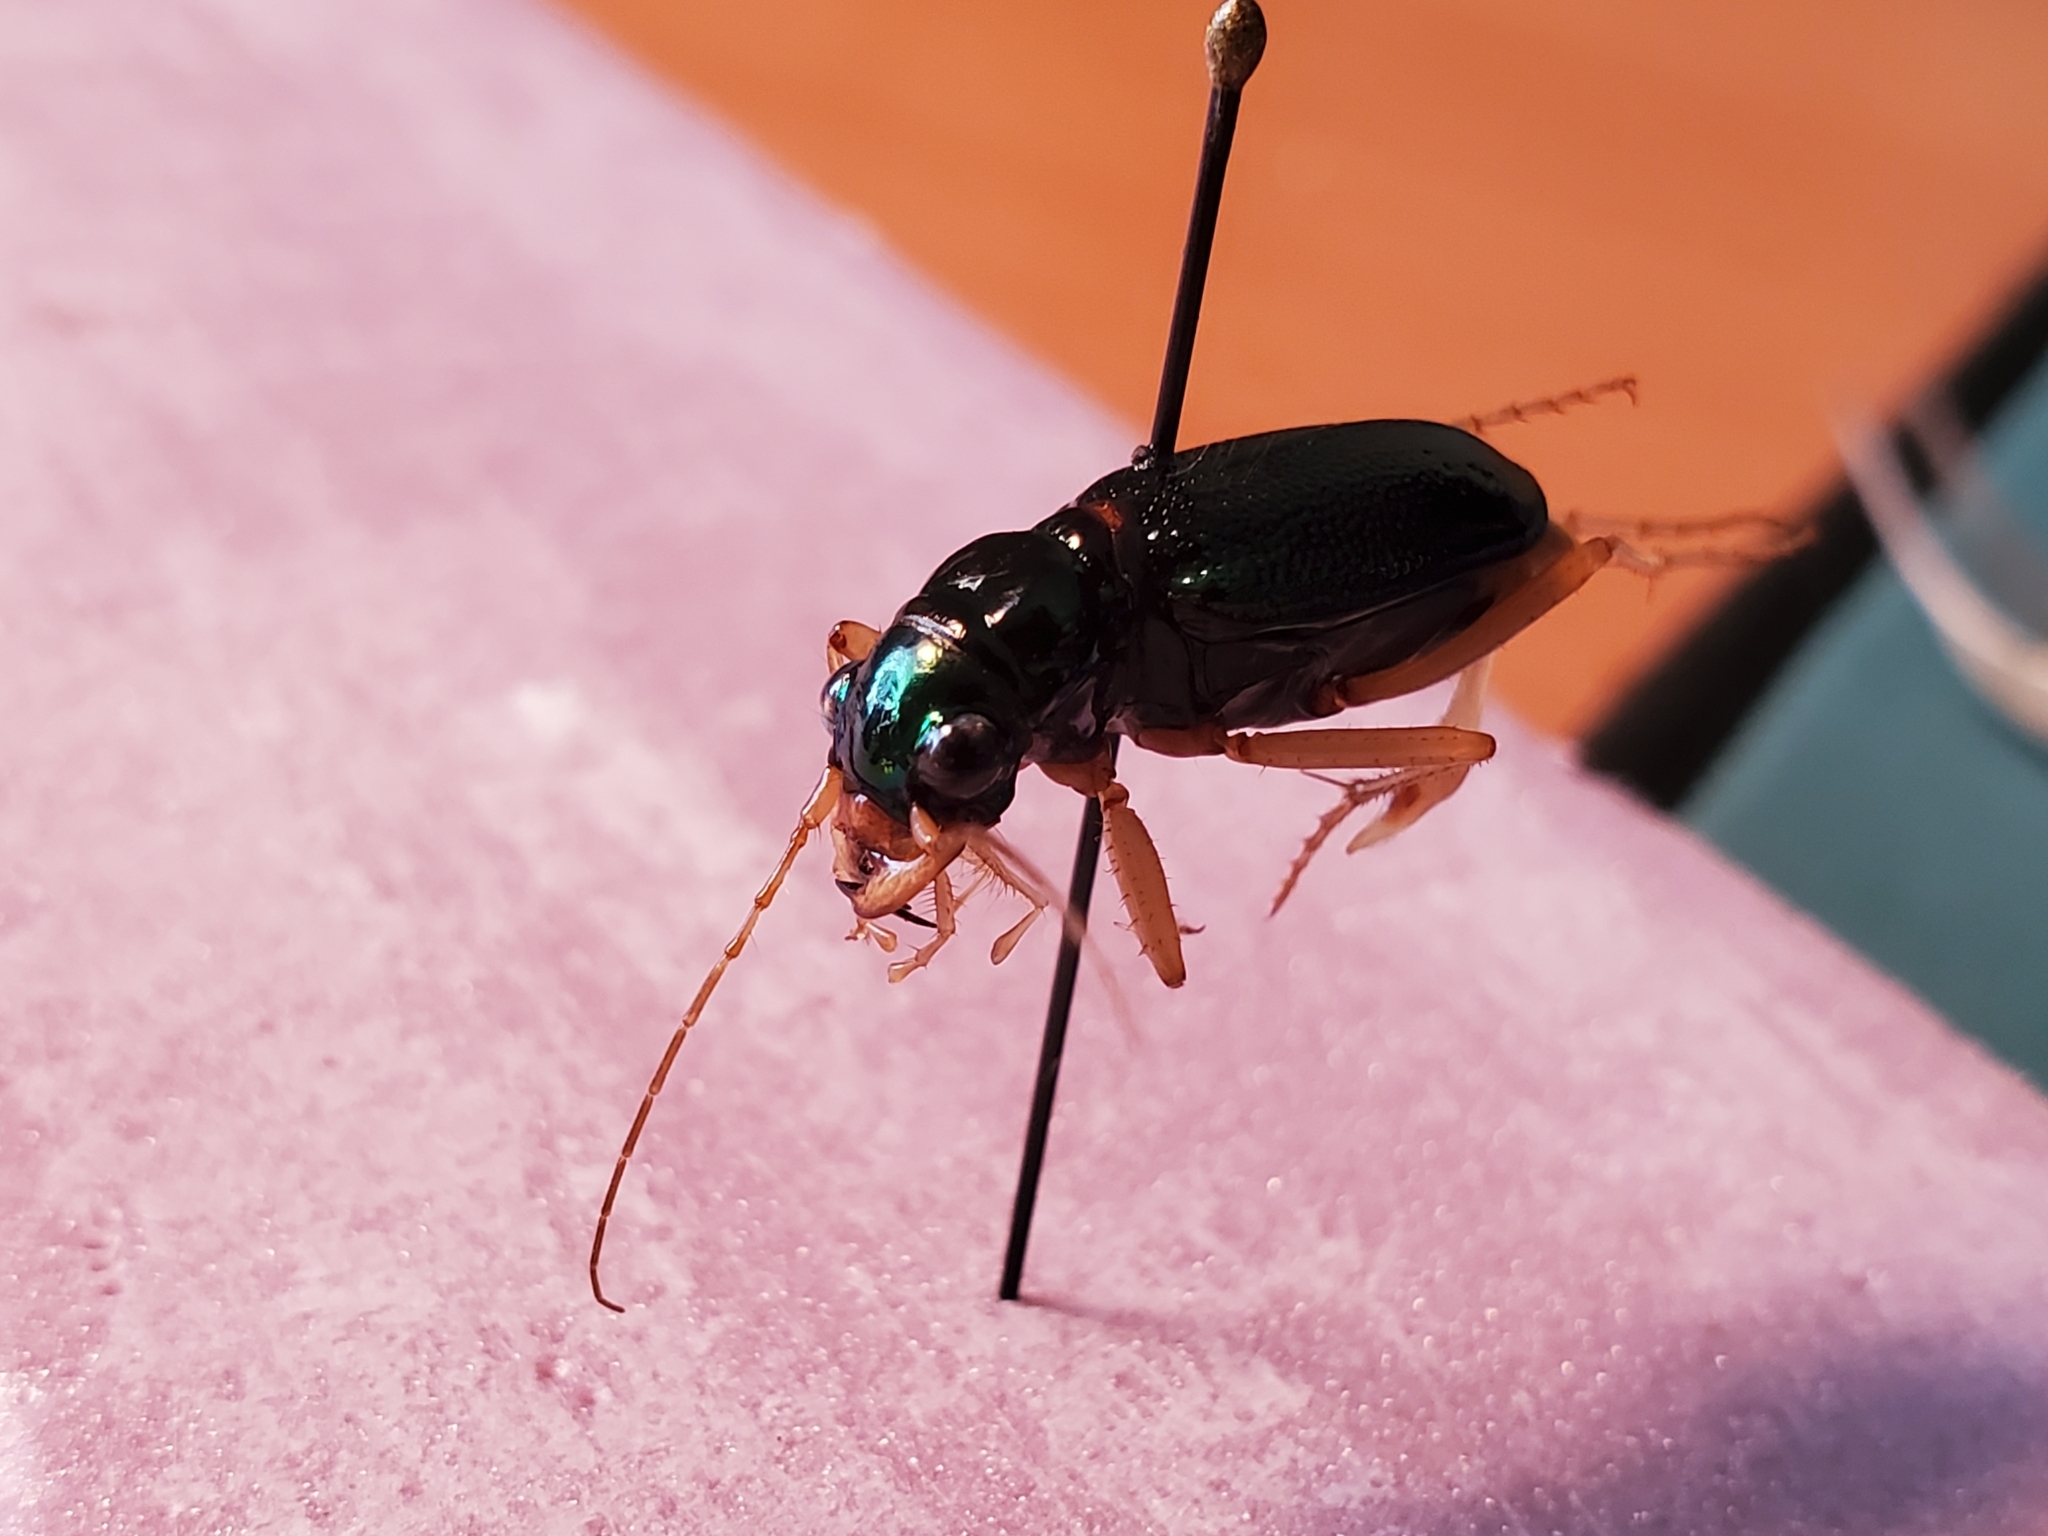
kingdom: Animalia
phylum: Arthropoda
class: Insecta
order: Coleoptera
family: Carabidae
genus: Tetracha
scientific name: Tetracha virginica
